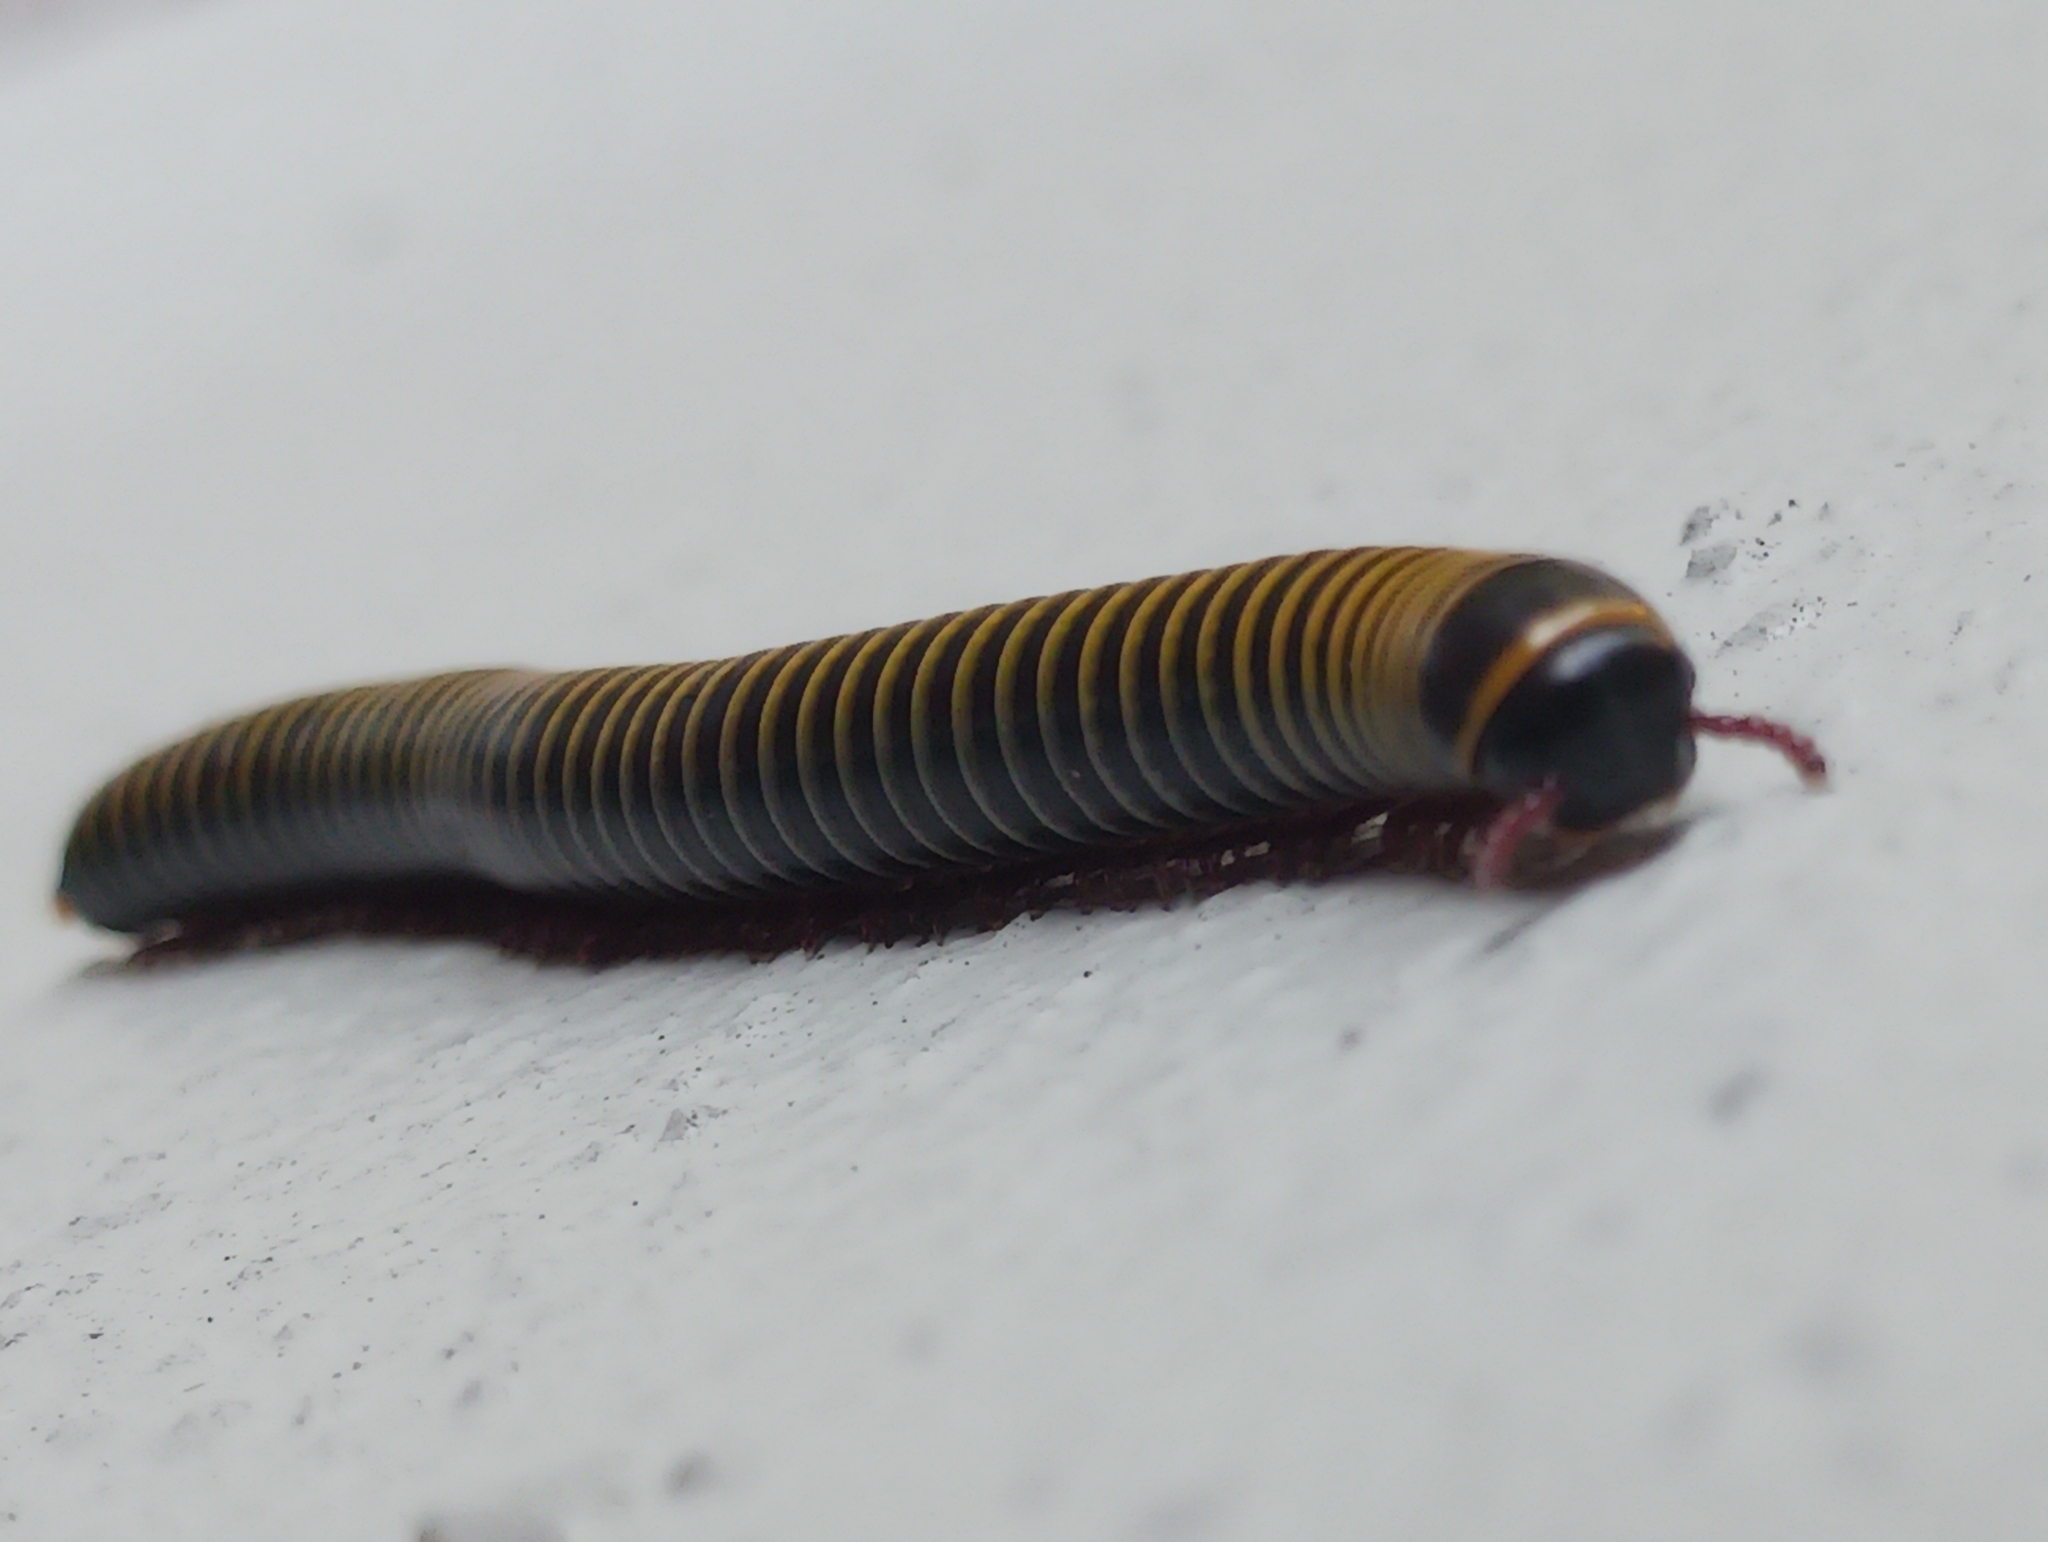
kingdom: Animalia
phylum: Arthropoda
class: Diplopoda
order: Spirobolida
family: Rhinocricidae
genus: Anadenobolus
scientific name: Anadenobolus monilicornis
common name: Caribbean millipede
